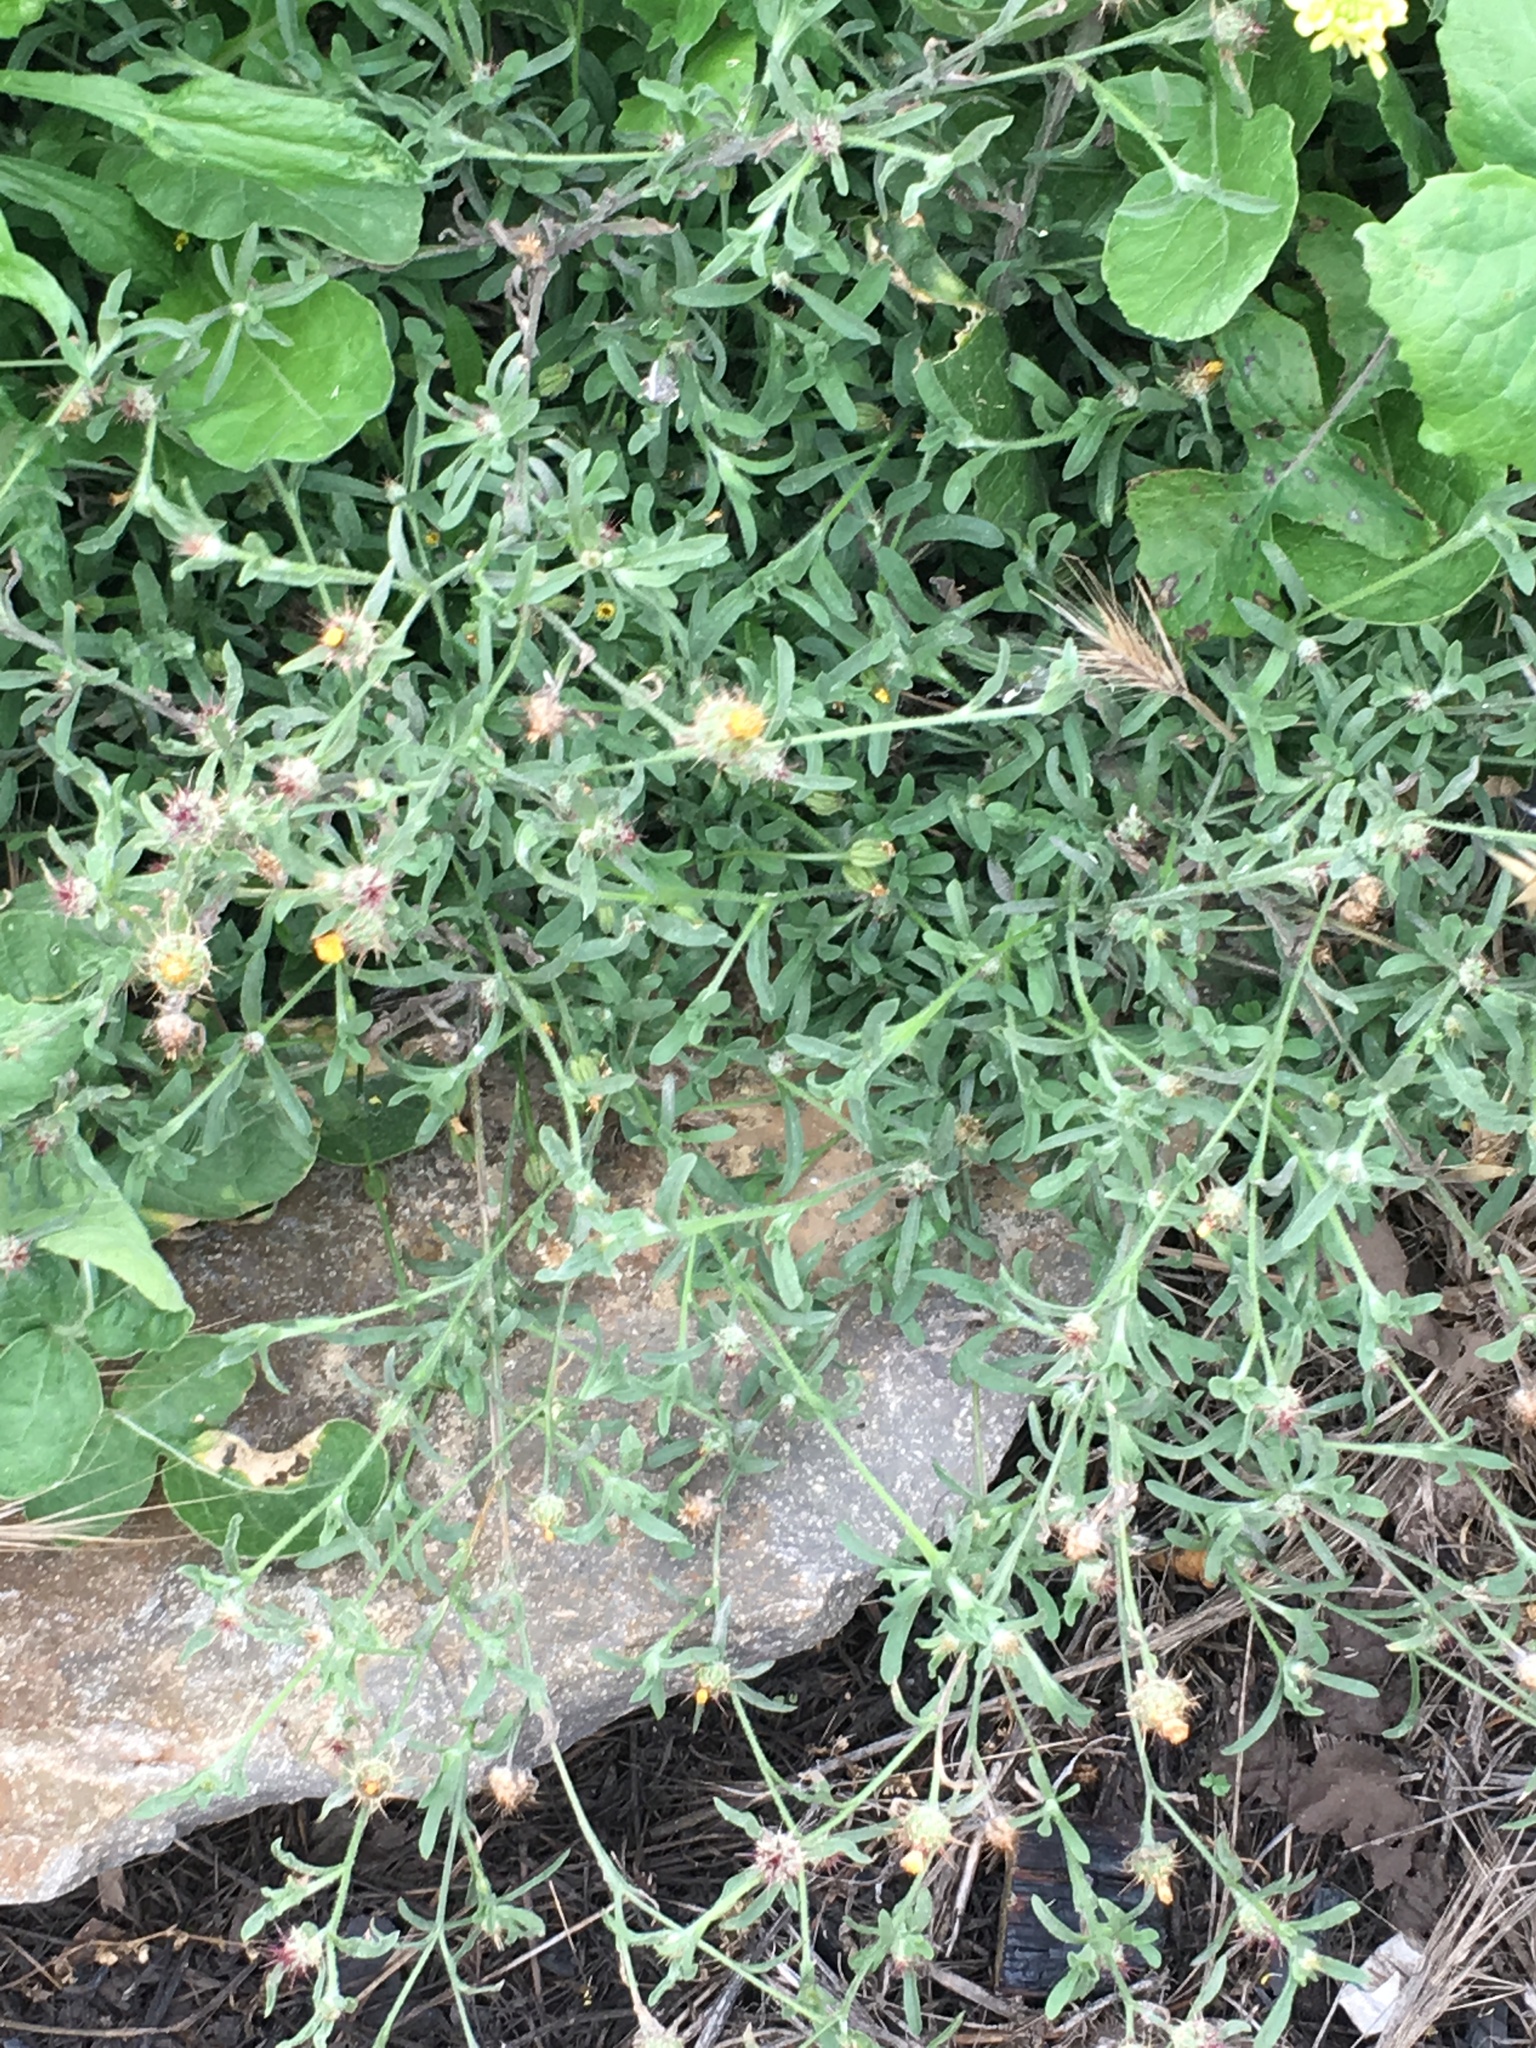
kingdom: Plantae
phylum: Tracheophyta
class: Magnoliopsida
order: Asterales
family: Asteraceae
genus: Centaurea
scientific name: Centaurea melitensis
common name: Maltese star-thistle
